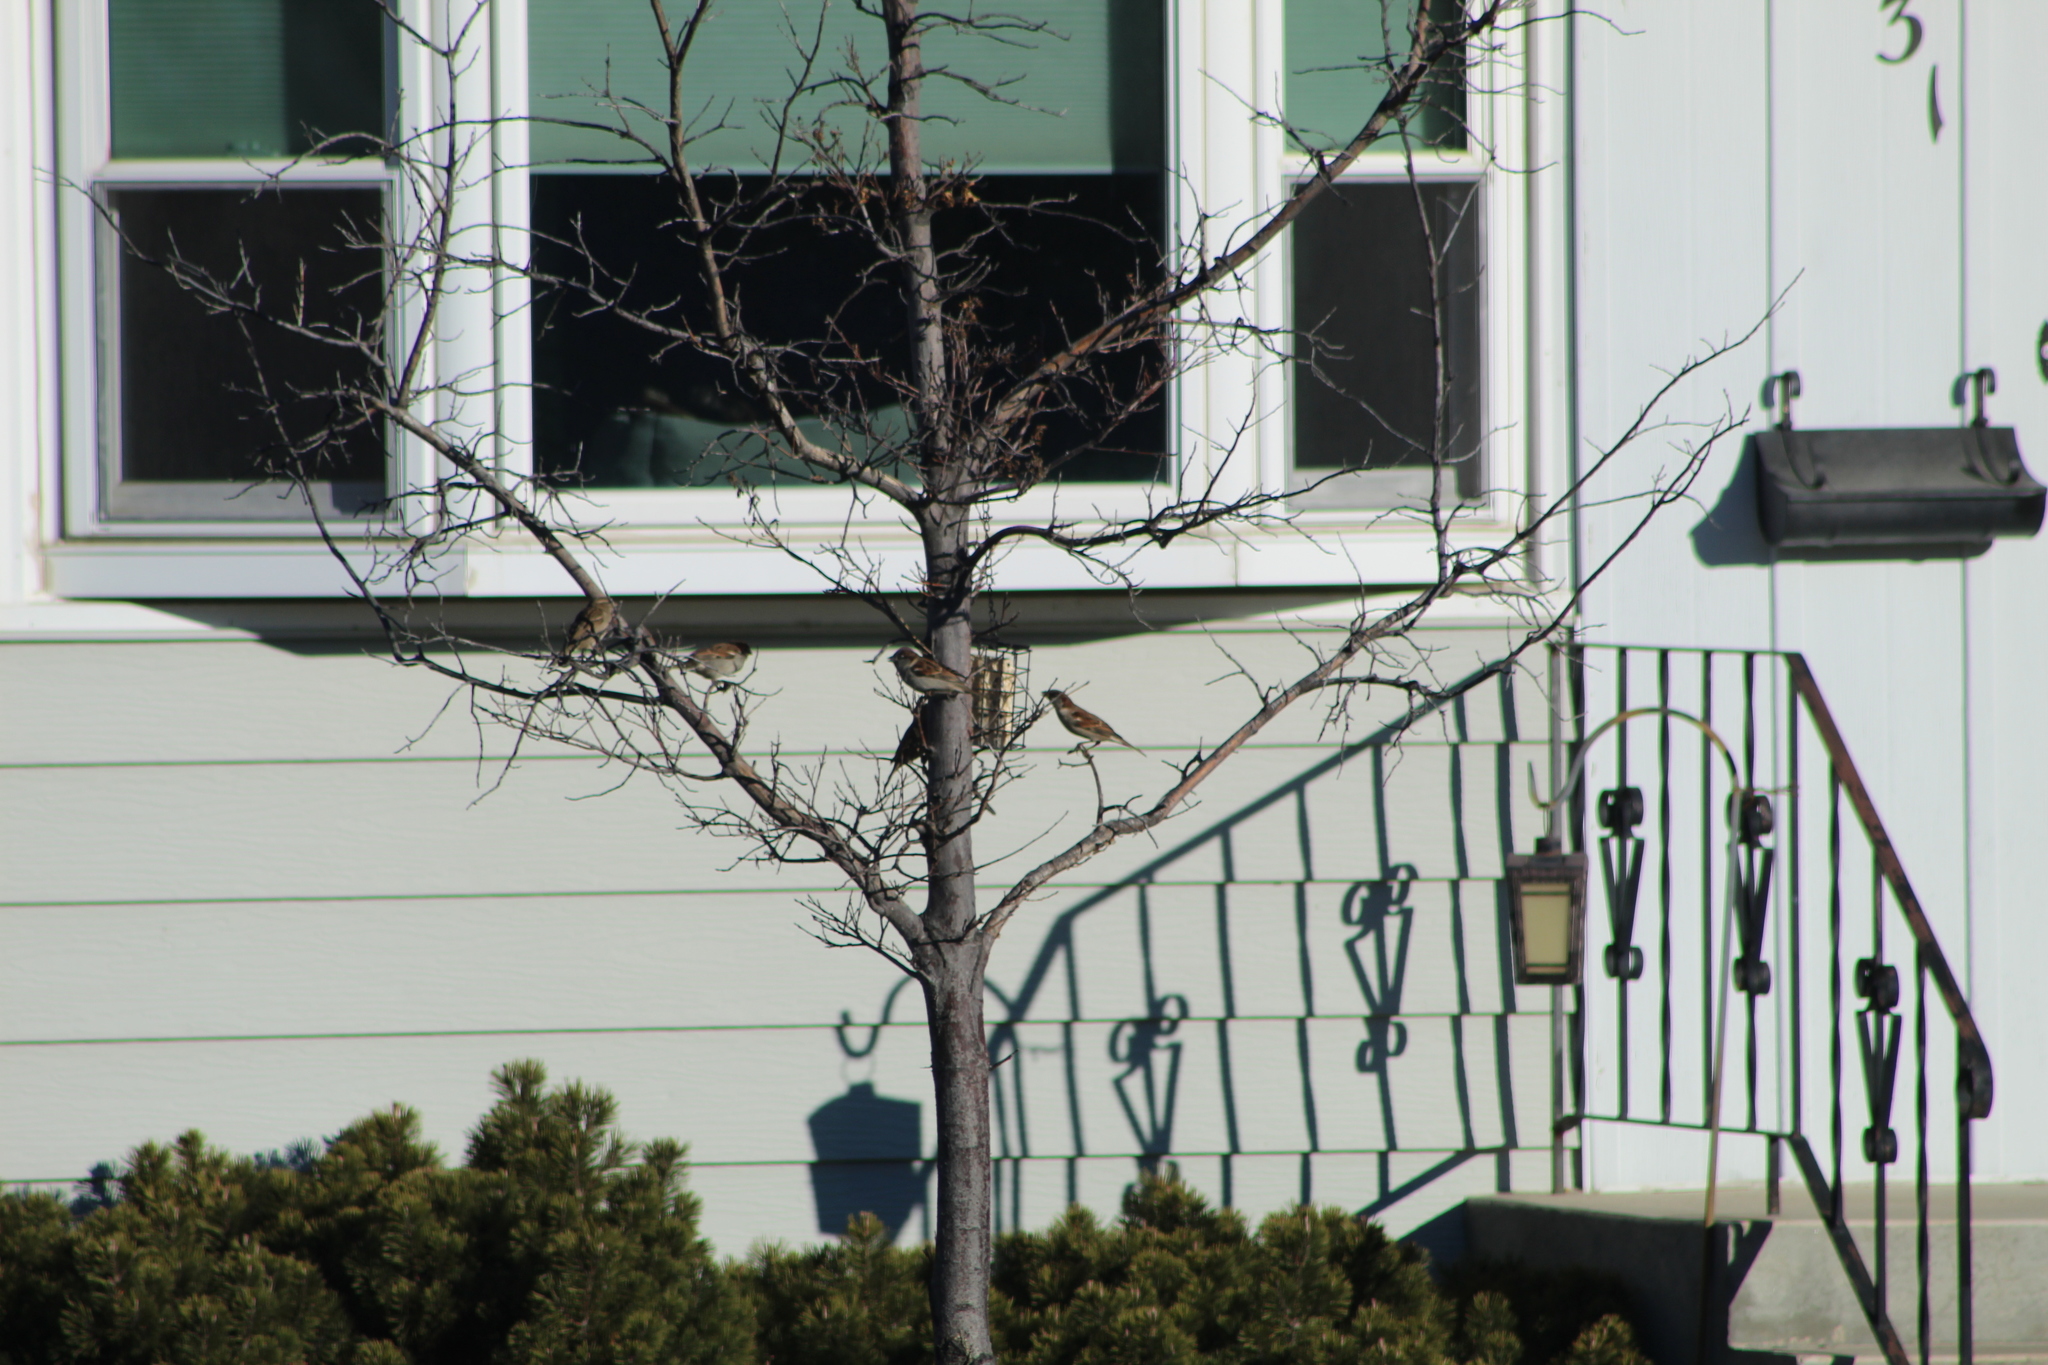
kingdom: Animalia
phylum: Chordata
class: Aves
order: Passeriformes
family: Passeridae
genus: Passer
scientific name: Passer domesticus
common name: House sparrow
